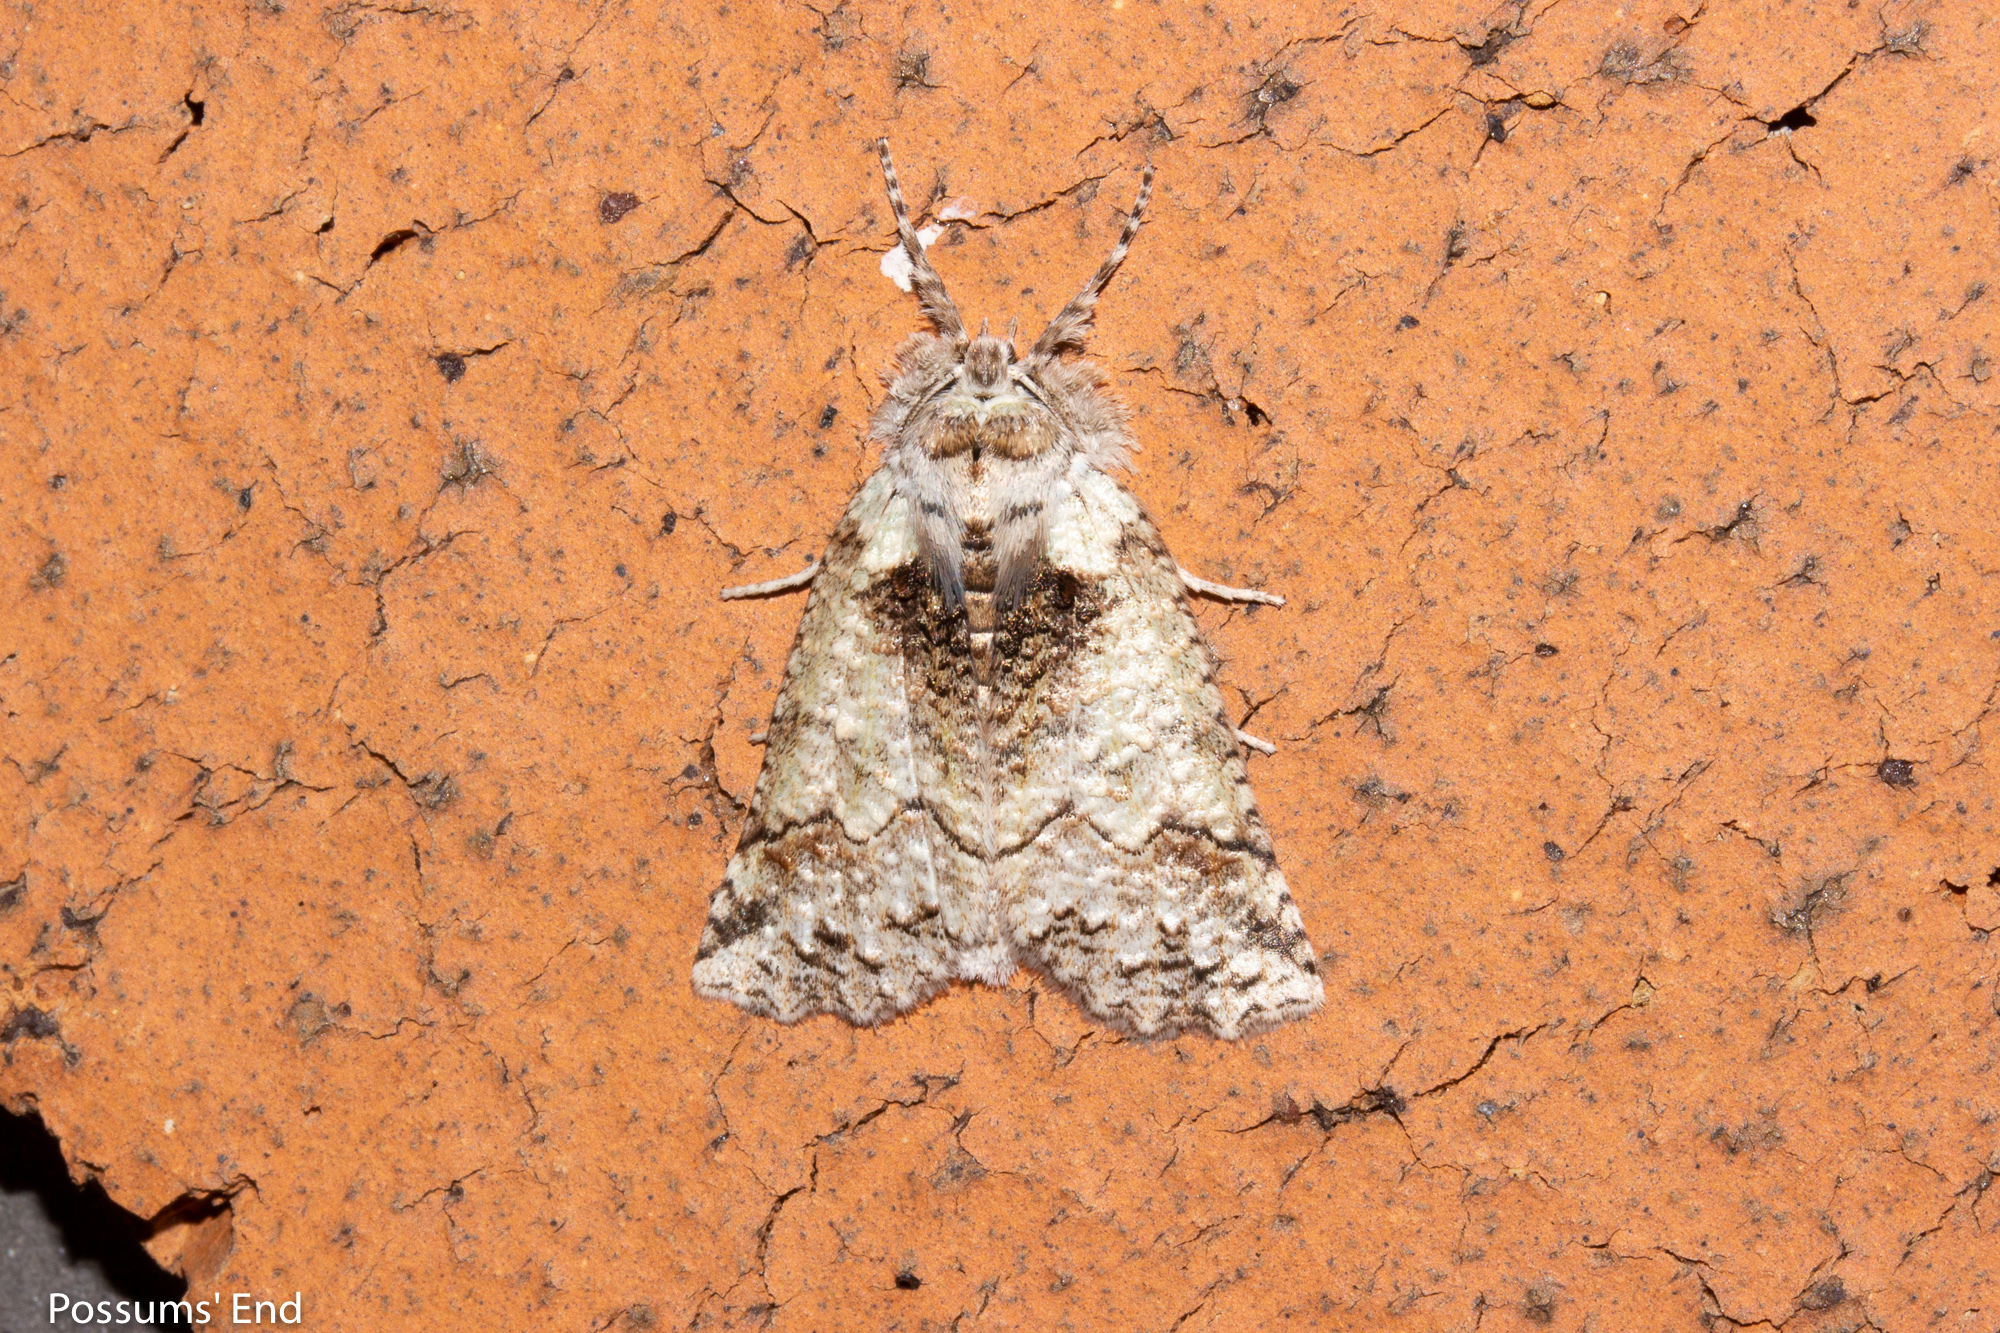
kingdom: Animalia
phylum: Arthropoda
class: Insecta
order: Lepidoptera
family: Geometridae
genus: Declana
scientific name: Declana floccosa
